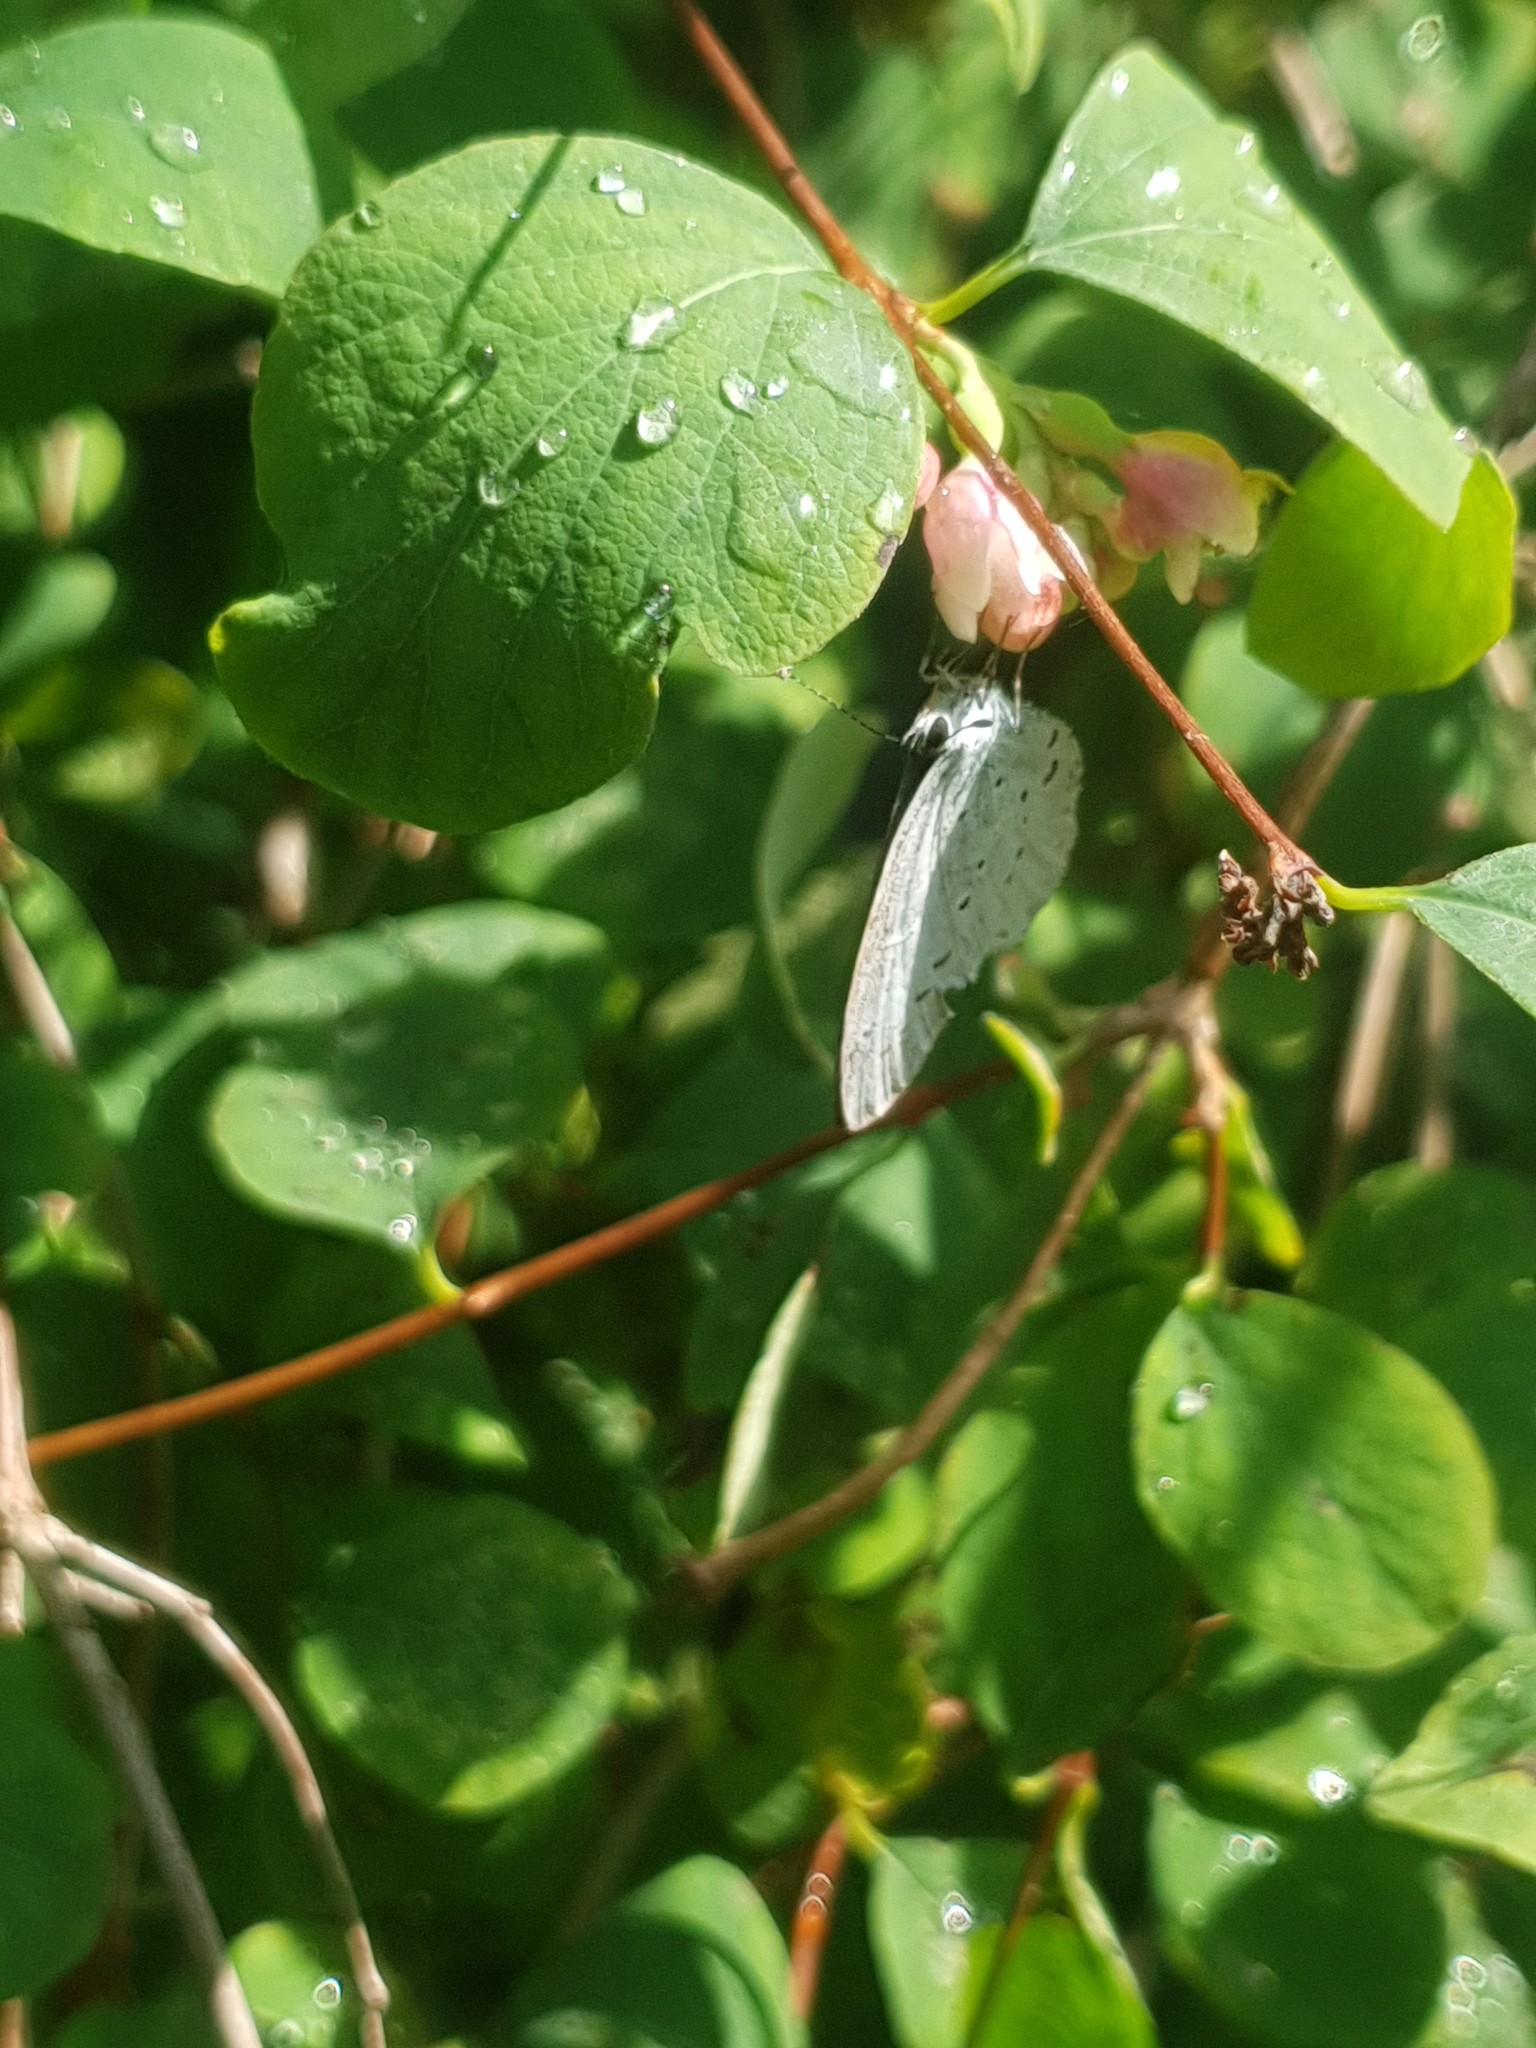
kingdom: Animalia
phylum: Arthropoda
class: Insecta
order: Lepidoptera
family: Lycaenidae
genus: Celastrina
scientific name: Celastrina argiolus
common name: Holly blue
